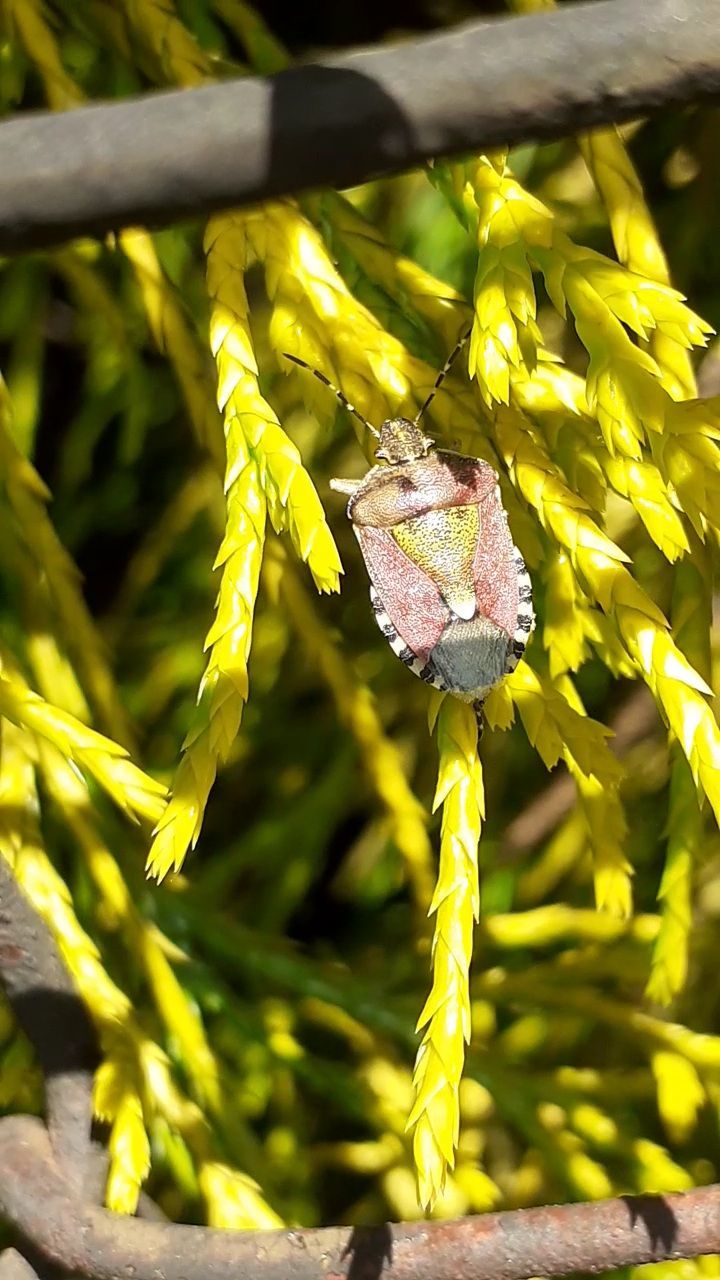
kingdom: Animalia
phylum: Arthropoda
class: Insecta
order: Hemiptera
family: Pentatomidae
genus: Dolycoris
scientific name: Dolycoris baccarum
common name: Sloe bug
